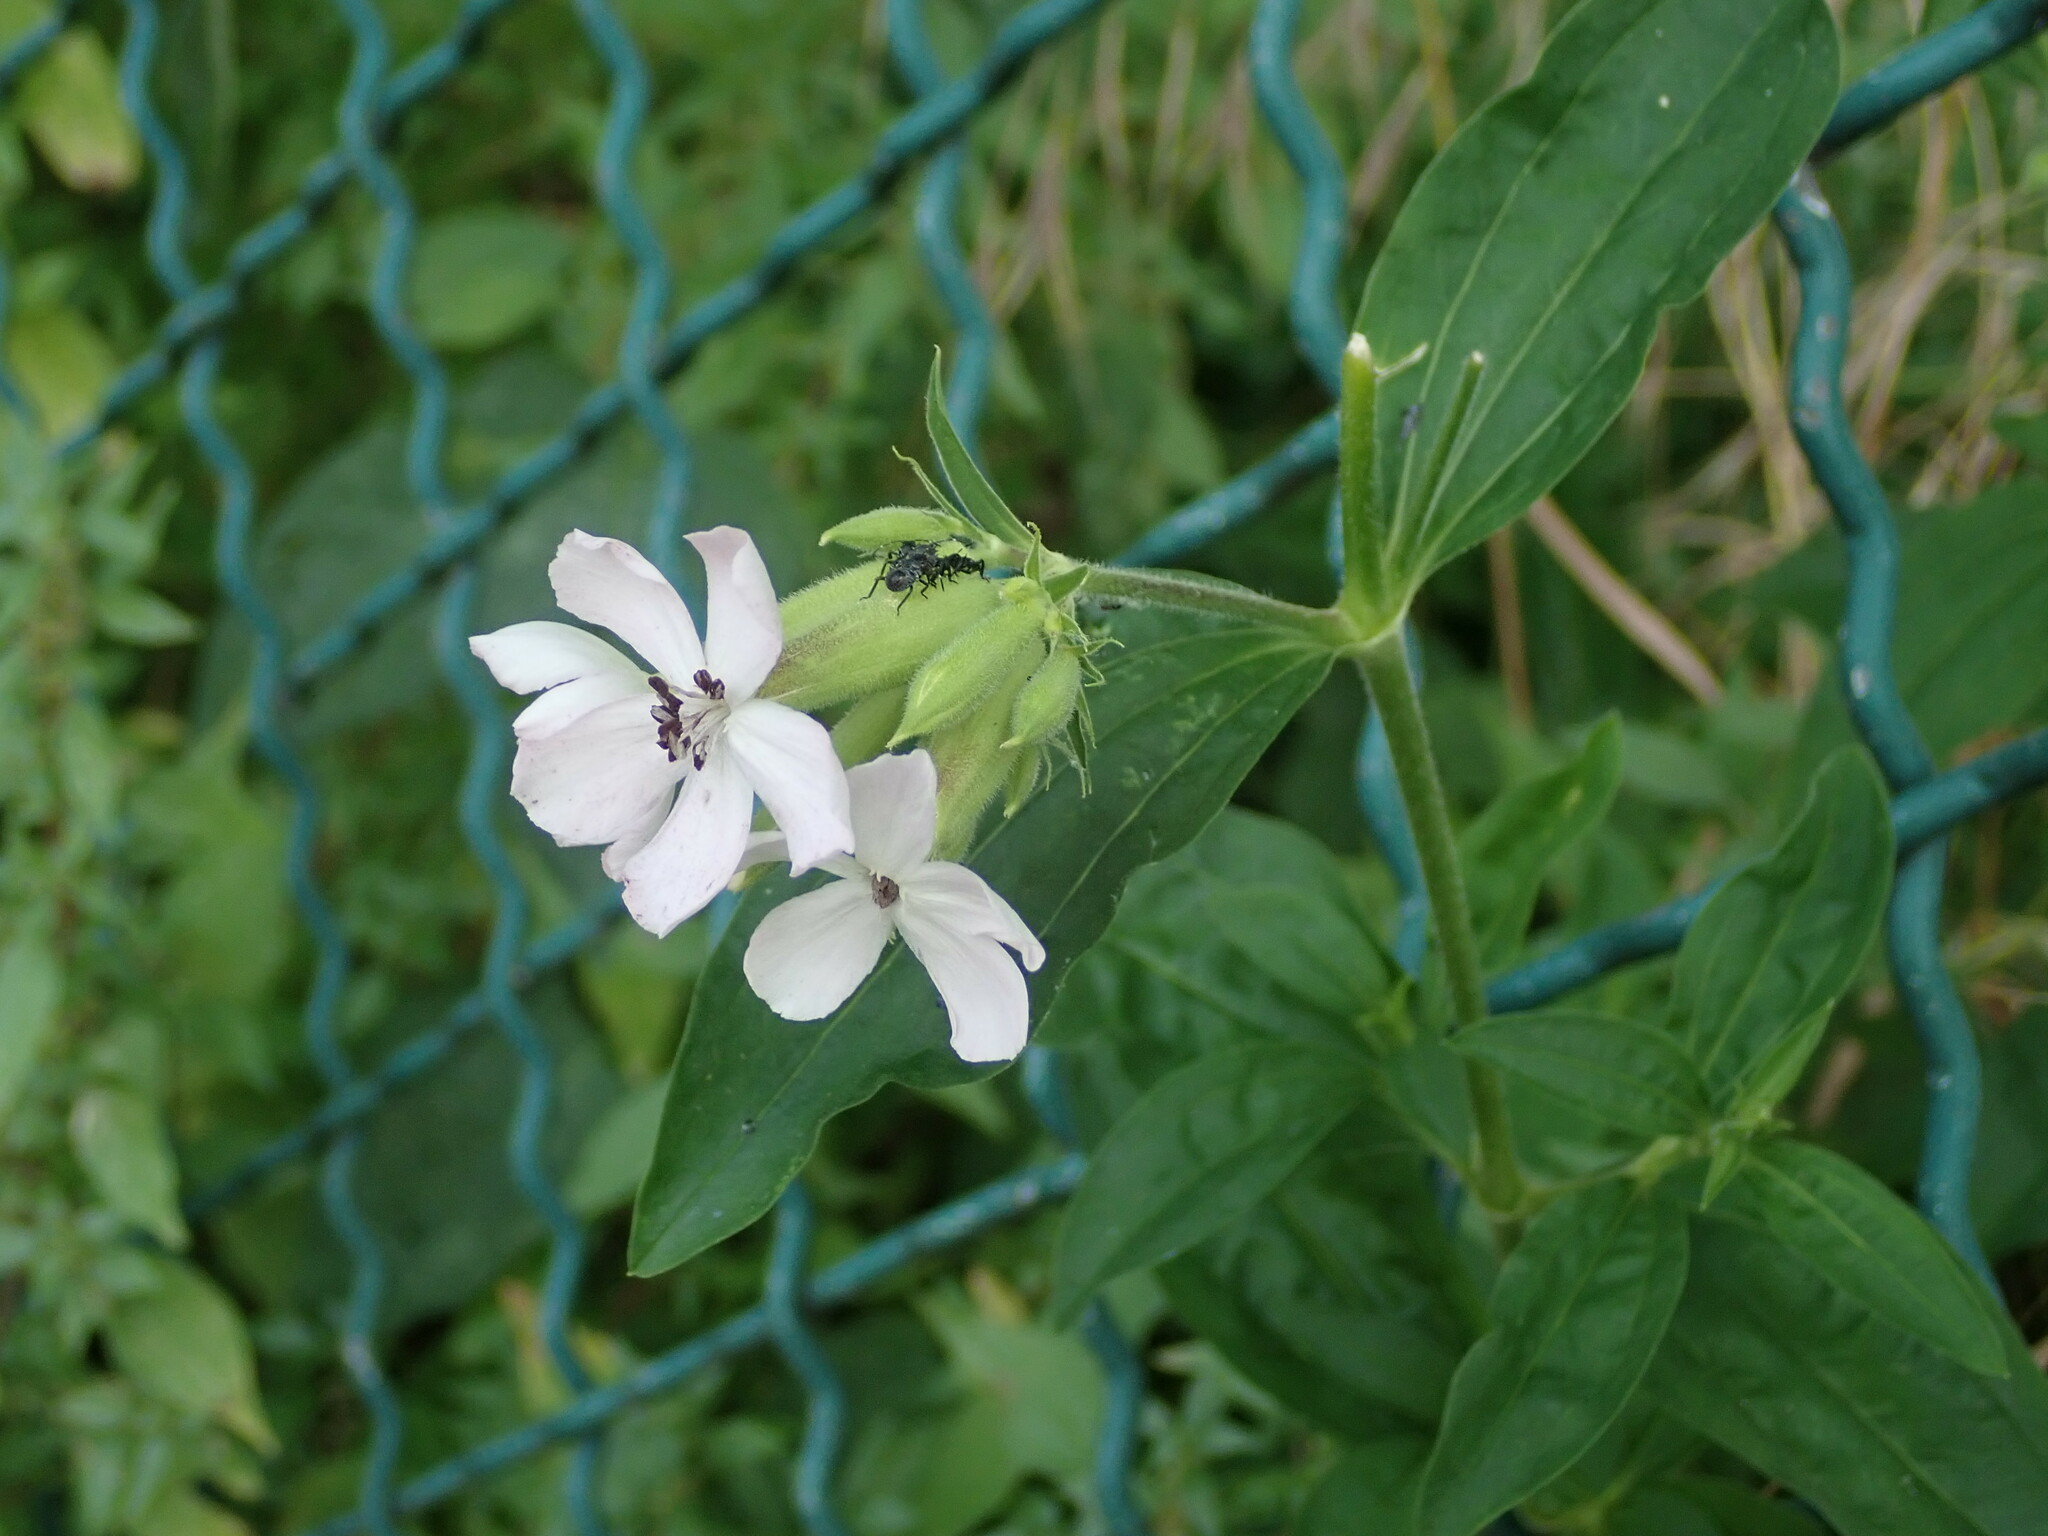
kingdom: Plantae
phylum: Tracheophyta
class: Magnoliopsida
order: Caryophyllales
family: Caryophyllaceae
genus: Saponaria
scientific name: Saponaria officinalis
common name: Soapwort
